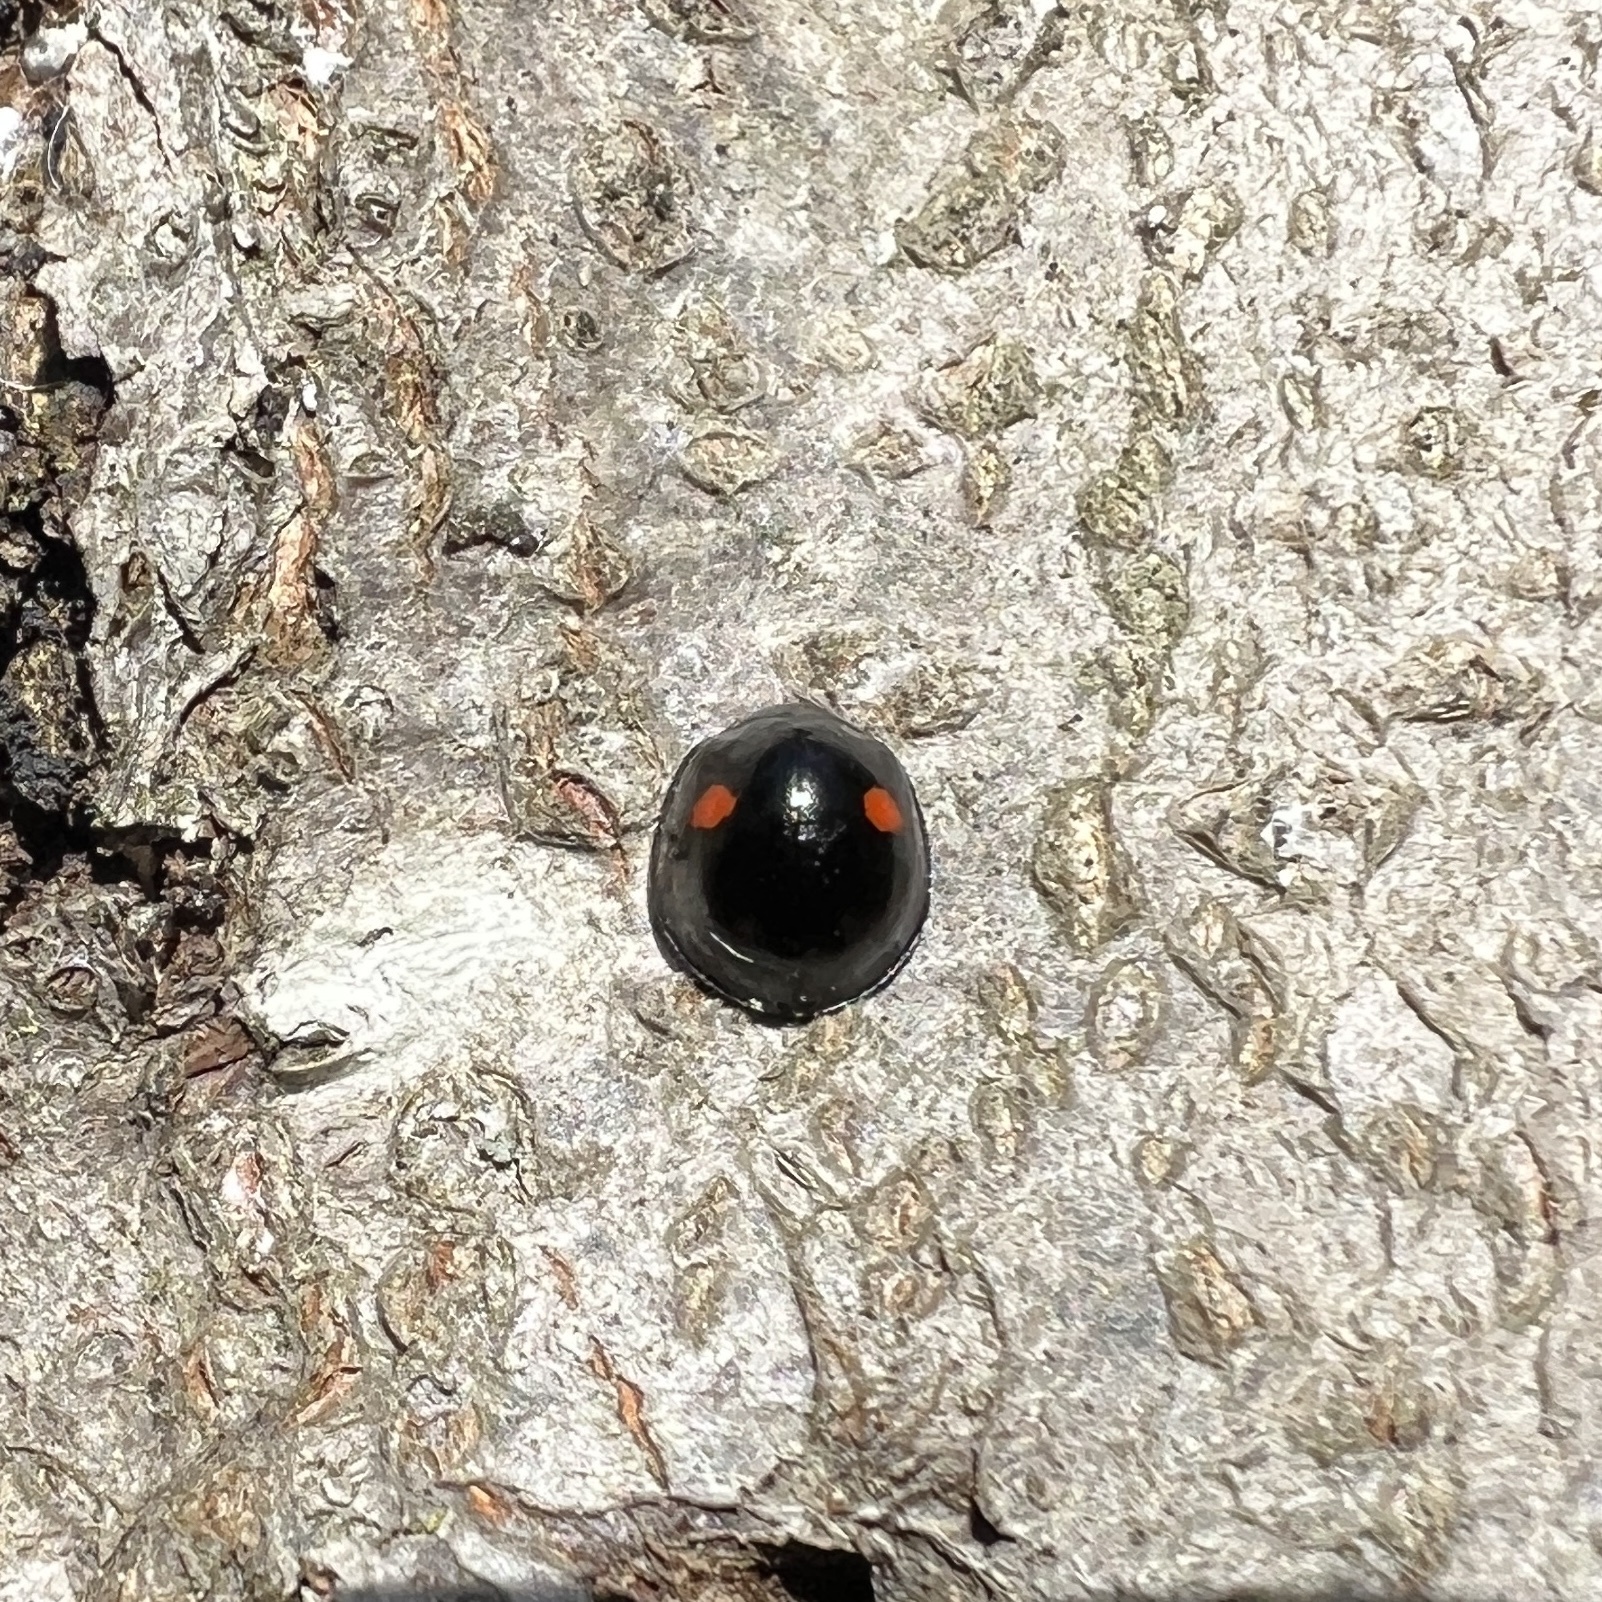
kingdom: Animalia
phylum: Arthropoda
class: Insecta
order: Coleoptera
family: Coccinellidae
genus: Chilocorus
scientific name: Chilocorus stigma
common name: Twicestabbed lady beetle
